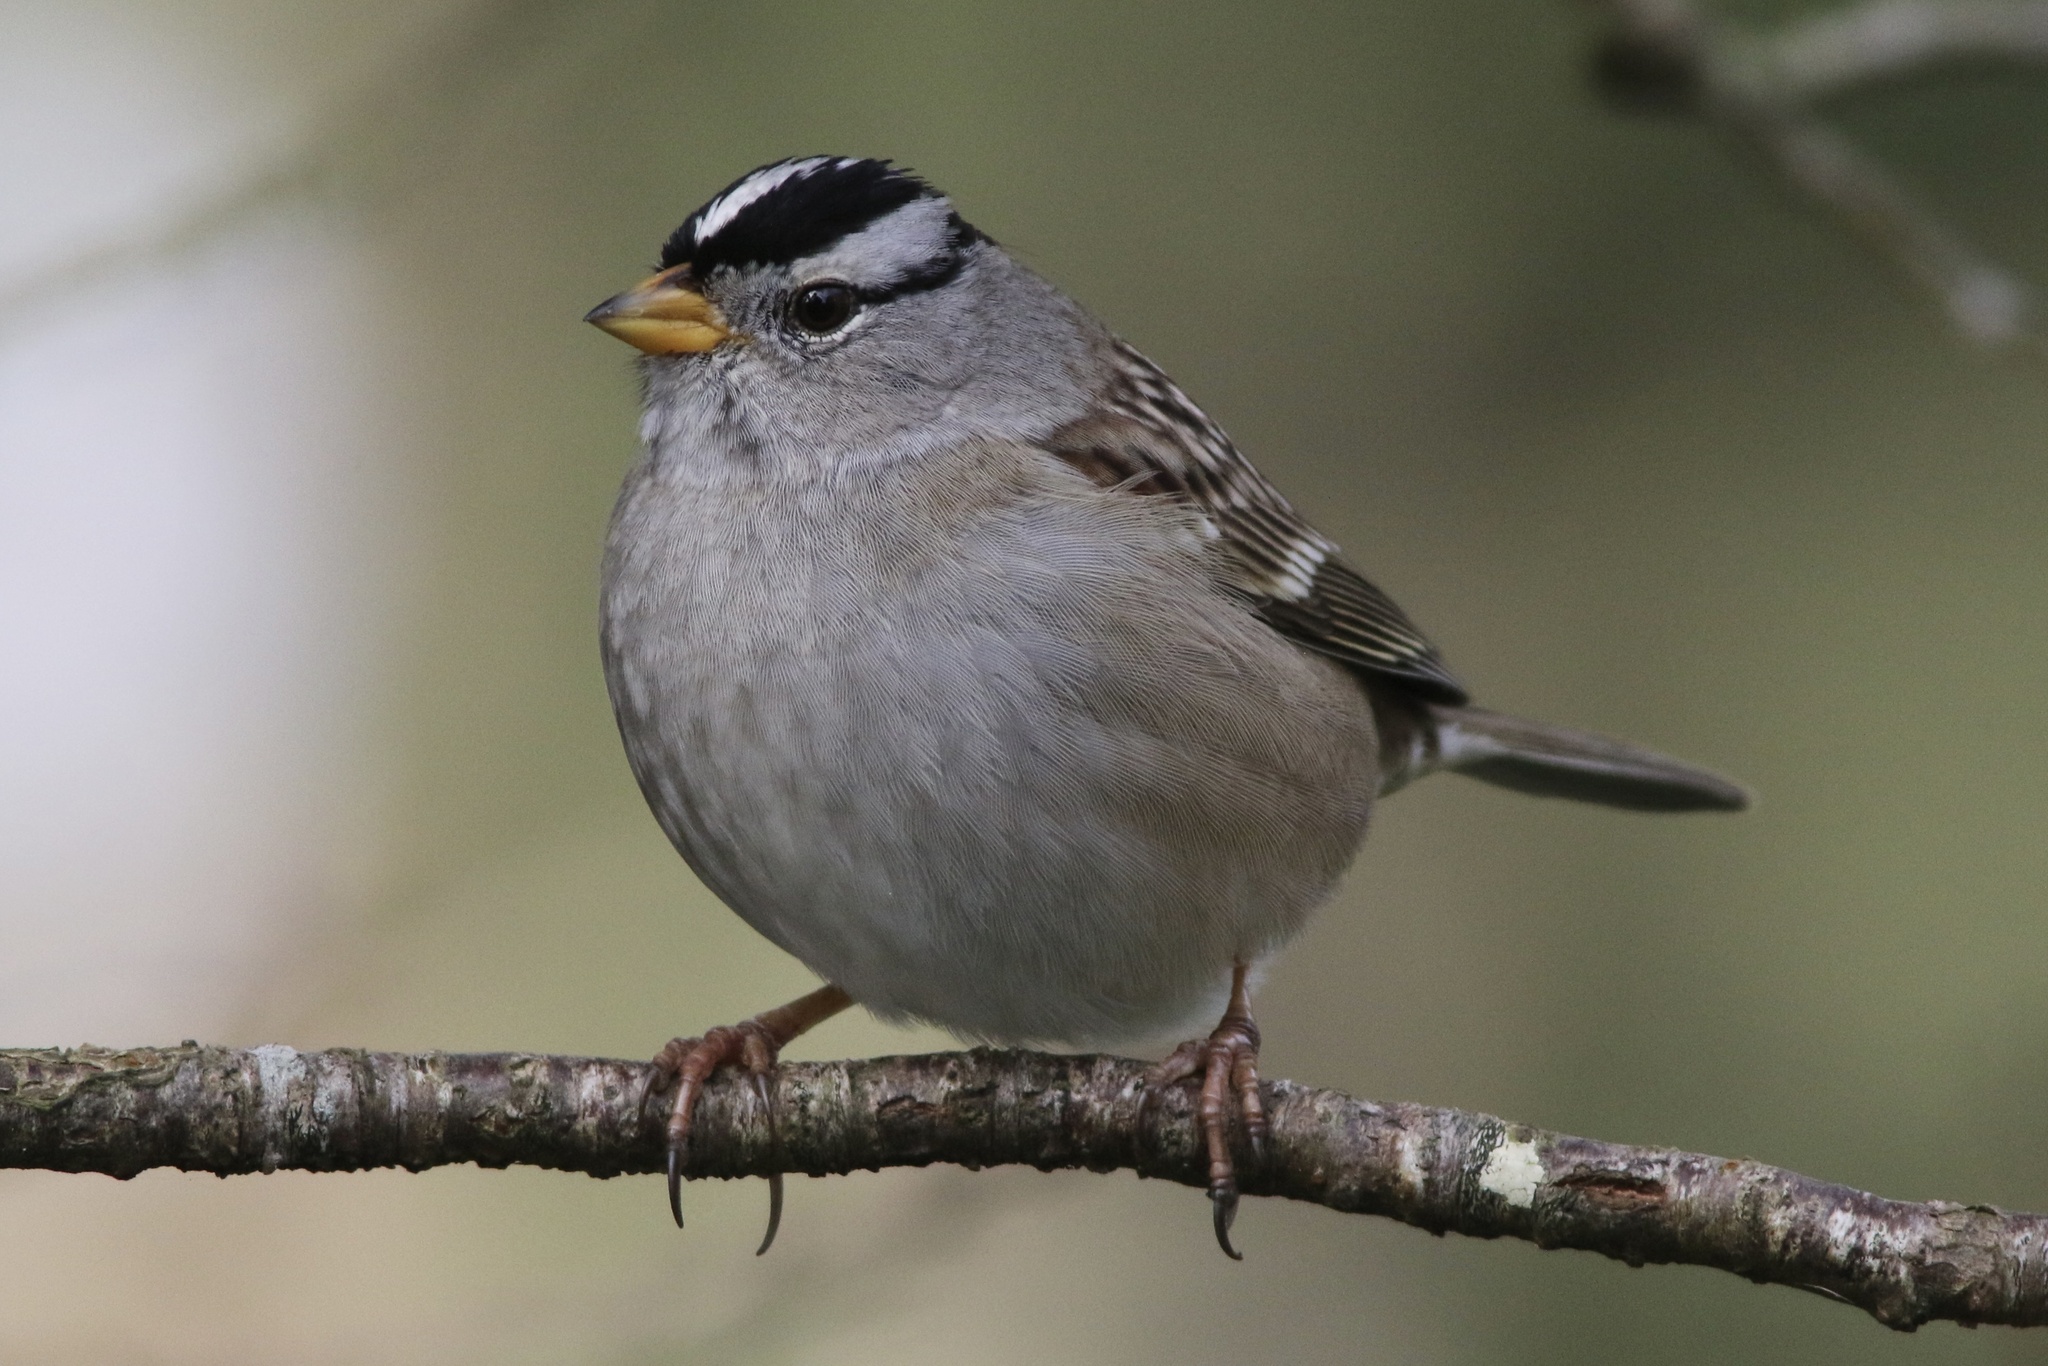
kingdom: Animalia
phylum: Chordata
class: Aves
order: Passeriformes
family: Passerellidae
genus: Zonotrichia
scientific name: Zonotrichia leucophrys
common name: White-crowned sparrow
